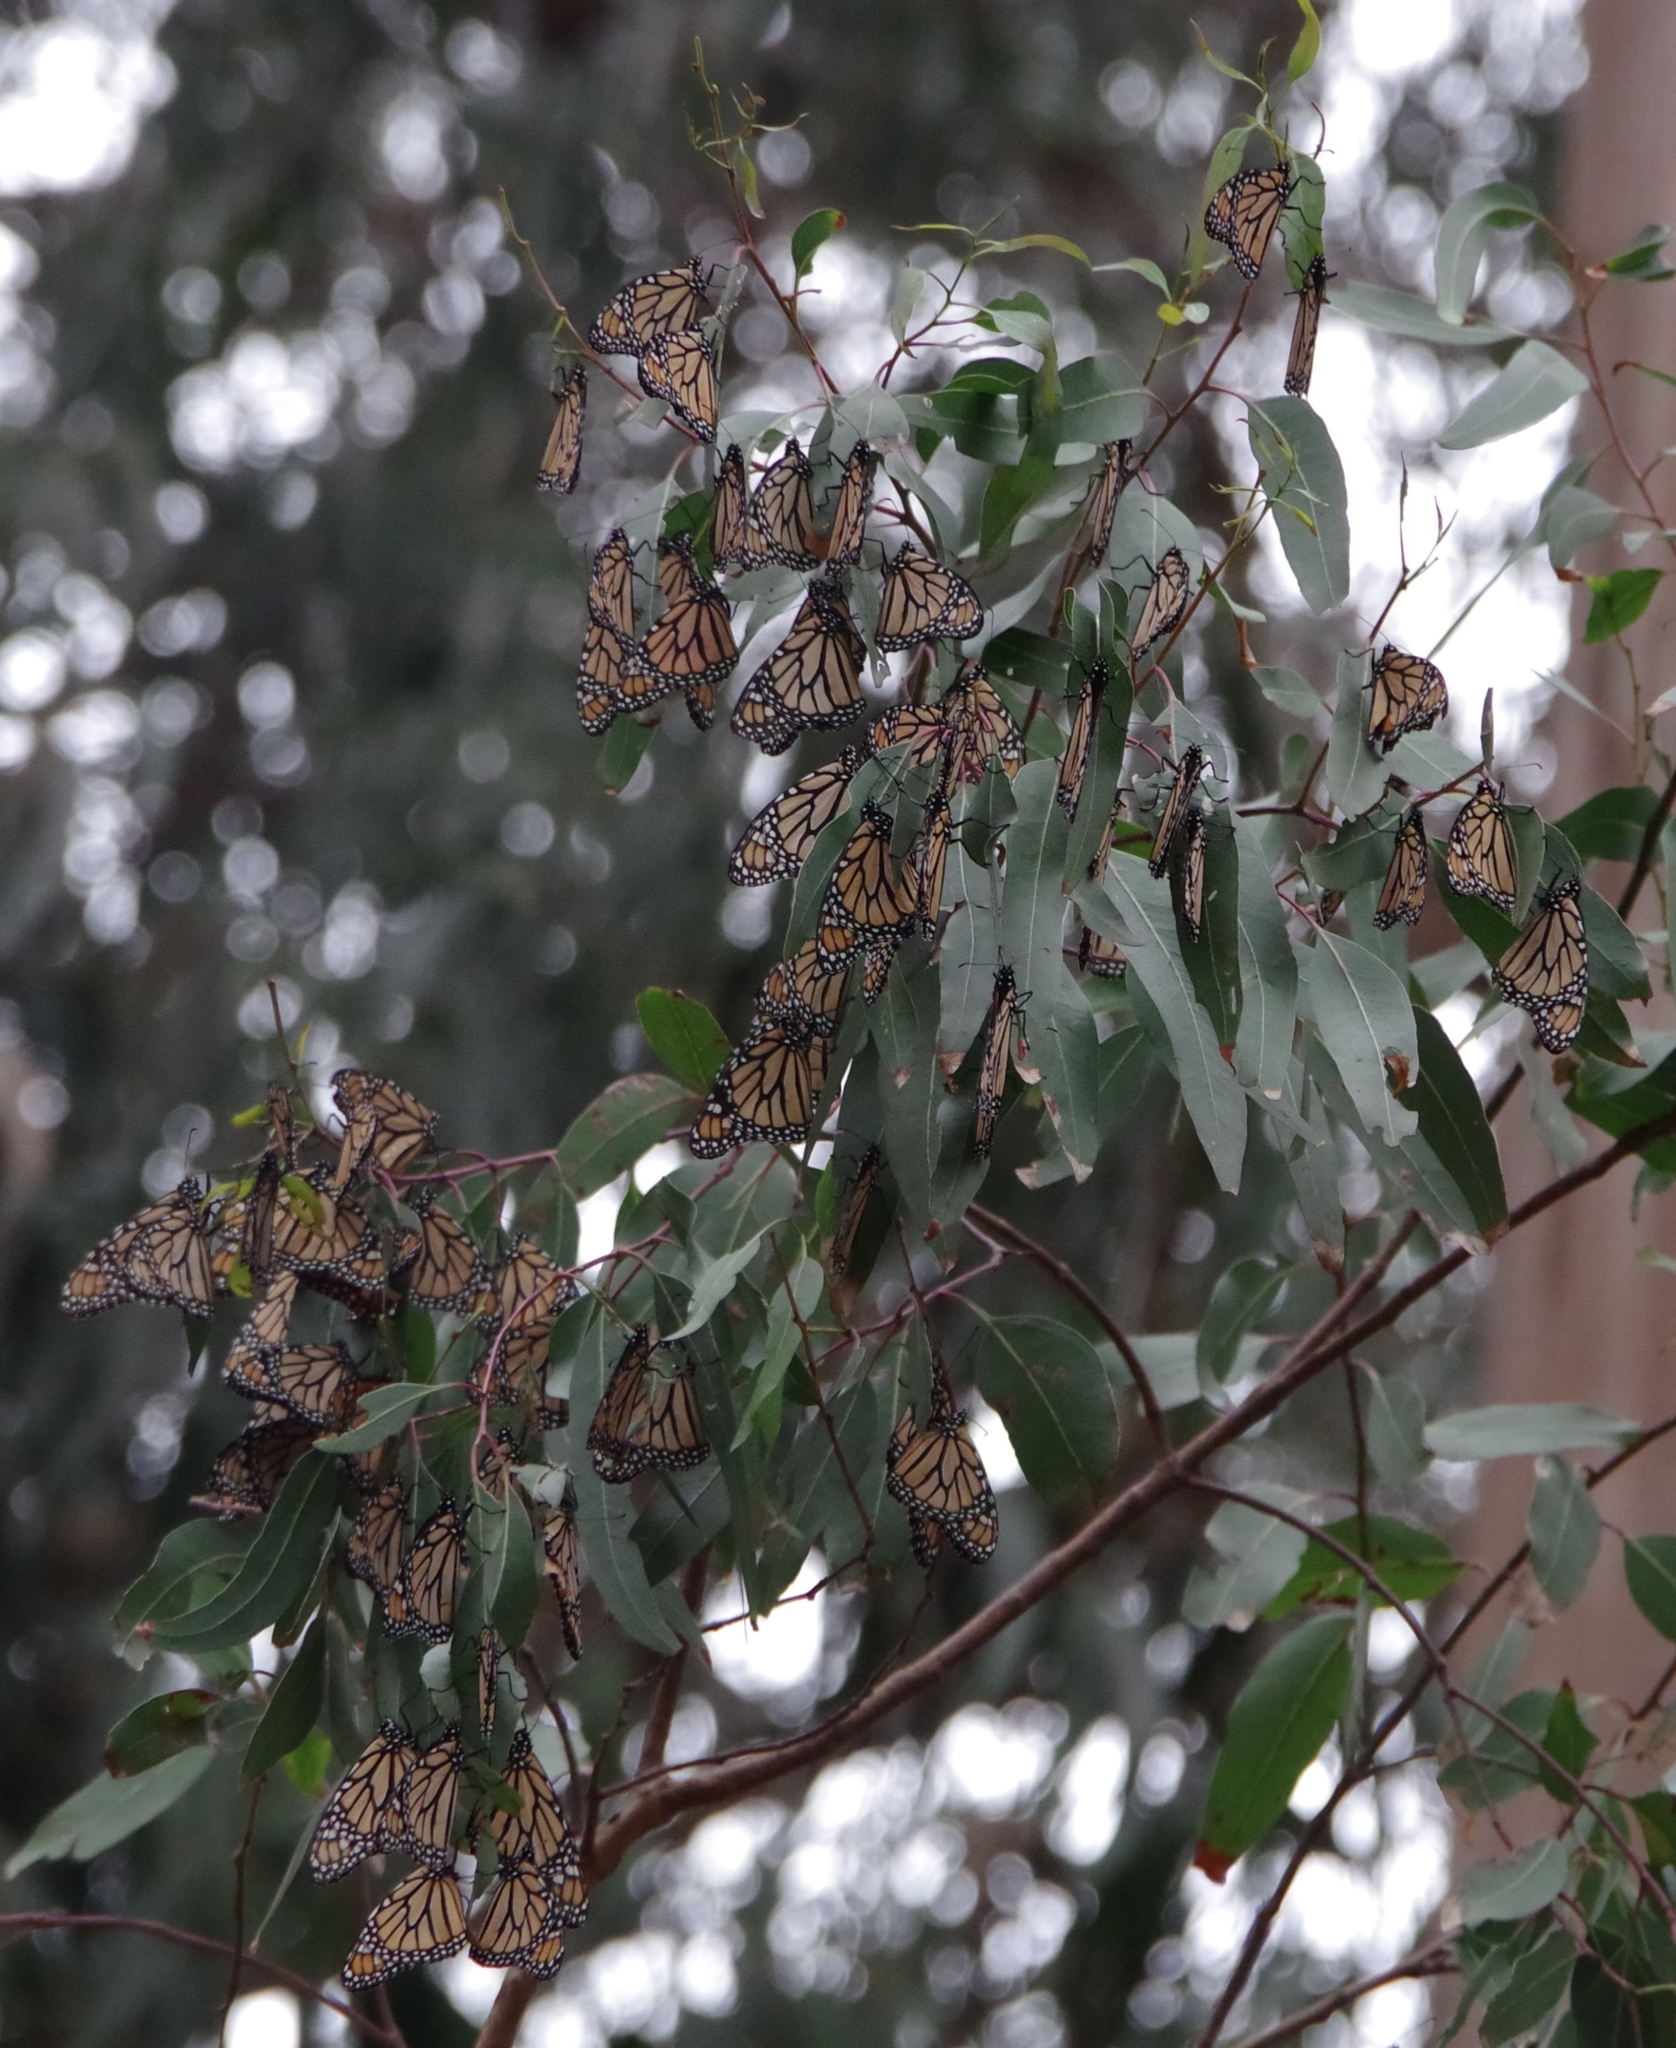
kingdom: Animalia
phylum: Arthropoda
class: Insecta
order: Lepidoptera
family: Nymphalidae
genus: Danaus
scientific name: Danaus plexippus
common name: Monarch
